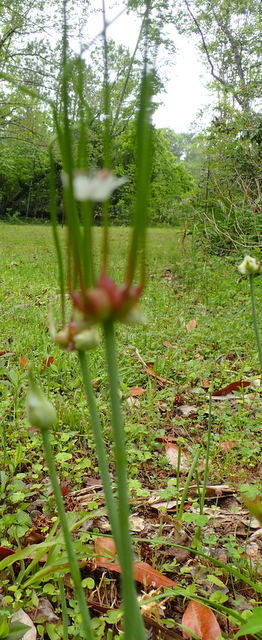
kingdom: Plantae
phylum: Tracheophyta
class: Liliopsida
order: Asparagales
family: Amaryllidaceae
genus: Allium
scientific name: Allium canadense
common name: Meadow garlic
